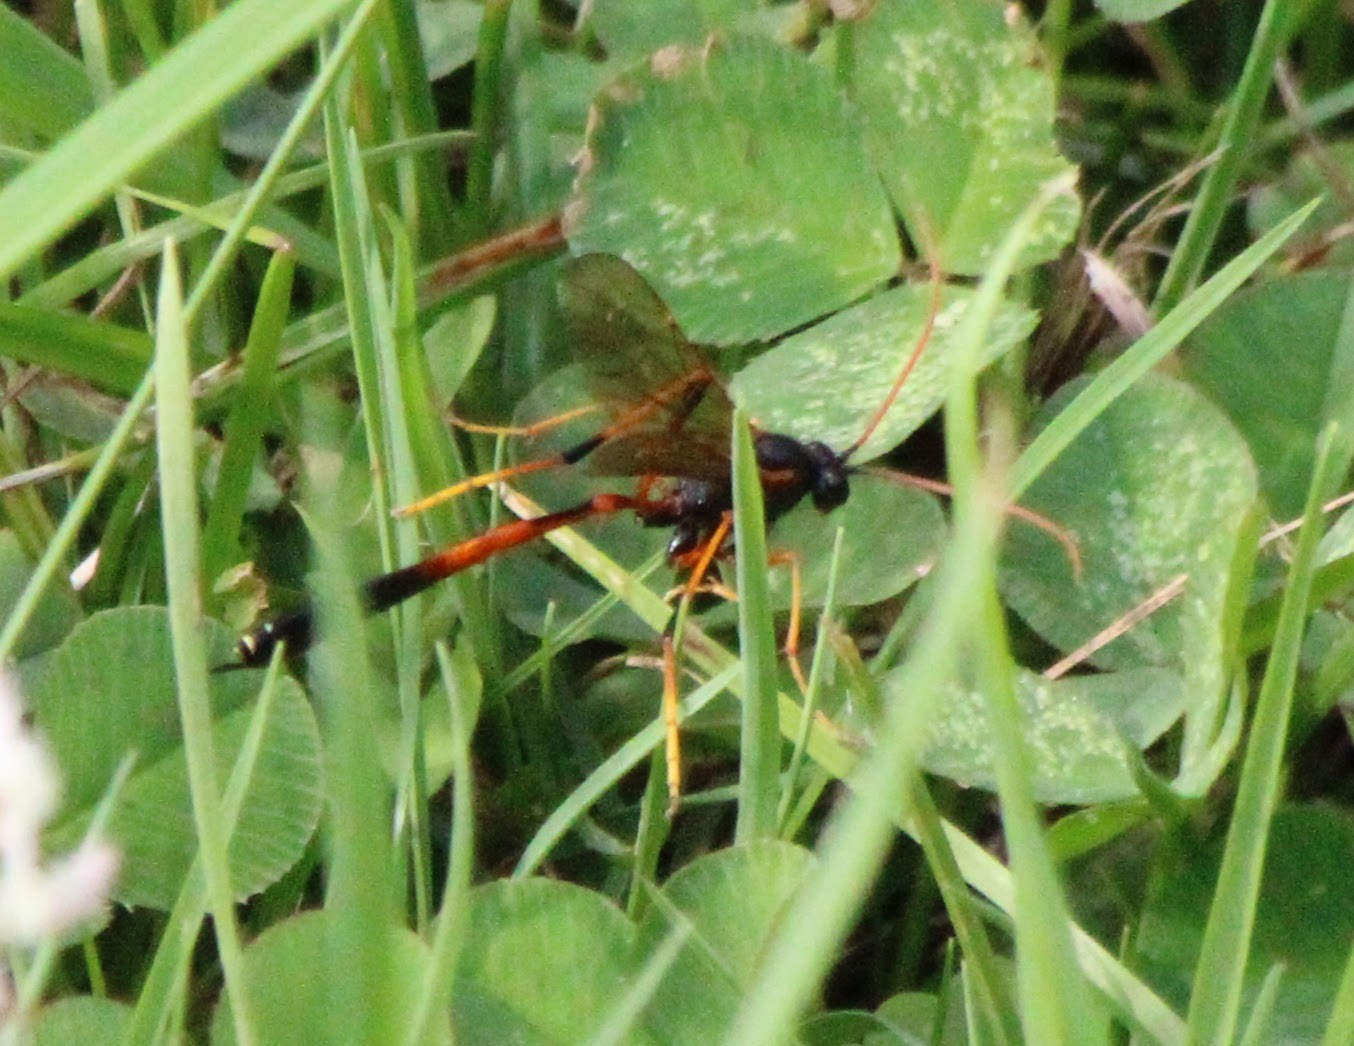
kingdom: Animalia
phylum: Arthropoda
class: Insecta
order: Hymenoptera
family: Ichneumonidae
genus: Therion
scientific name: Therion circumflexum
